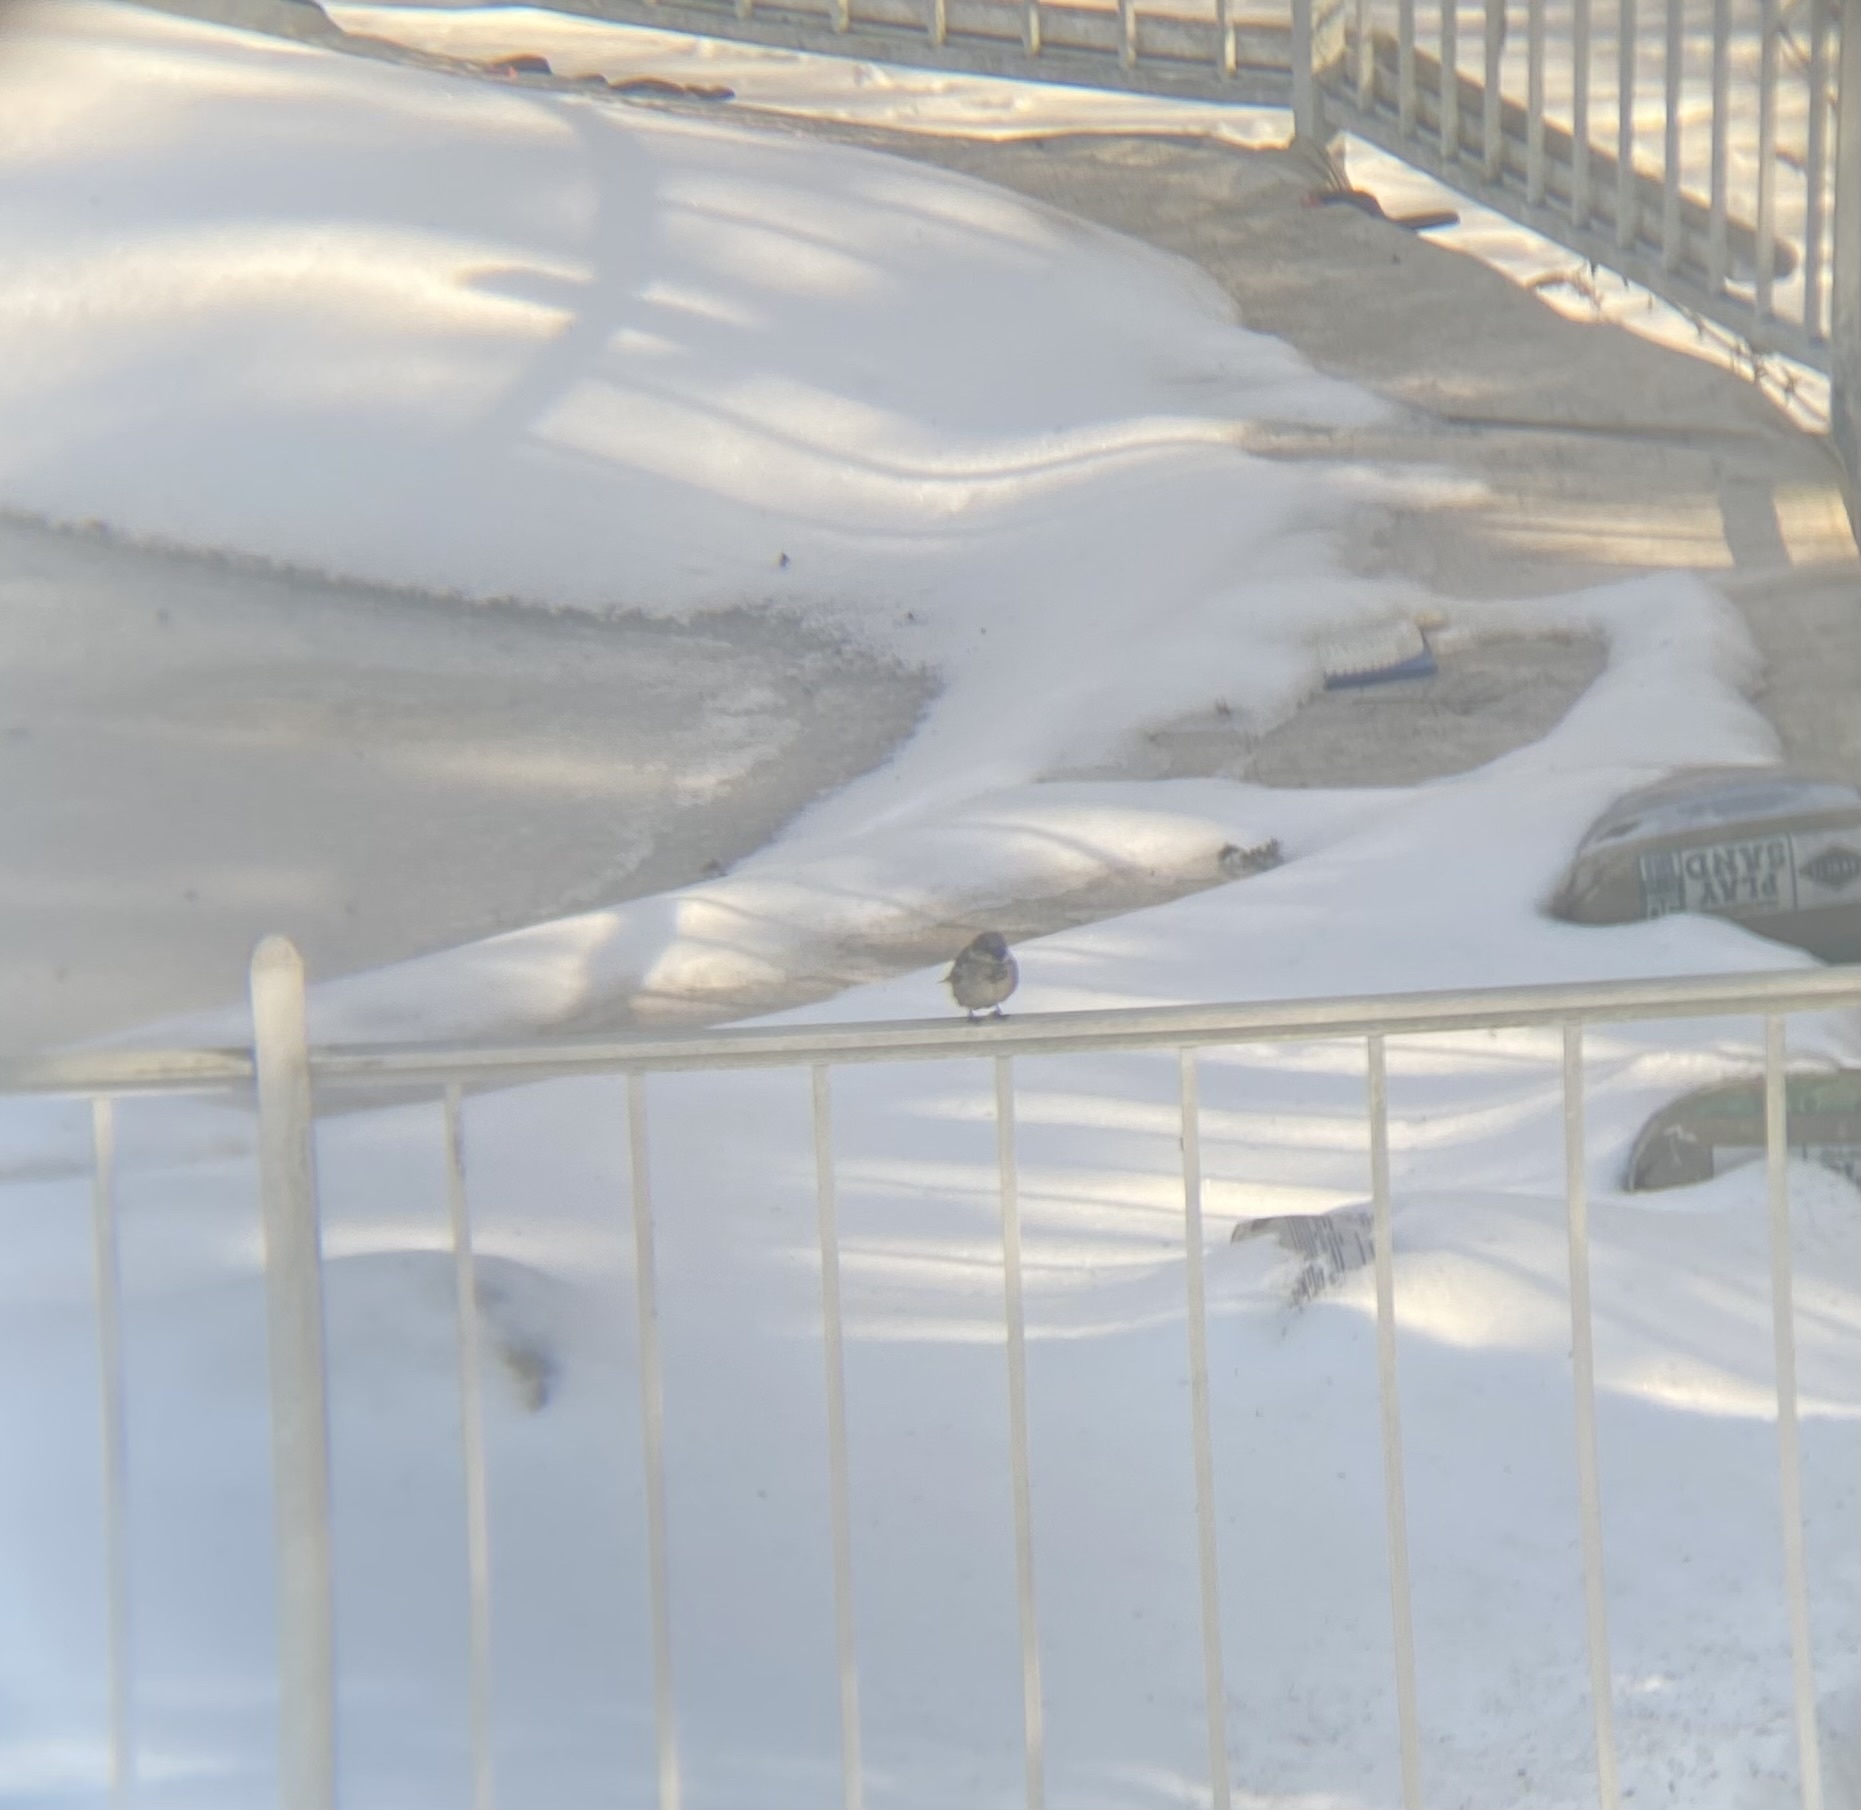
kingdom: Animalia
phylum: Chordata
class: Aves
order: Passeriformes
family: Passeridae
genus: Passer
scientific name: Passer domesticus
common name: House sparrow
